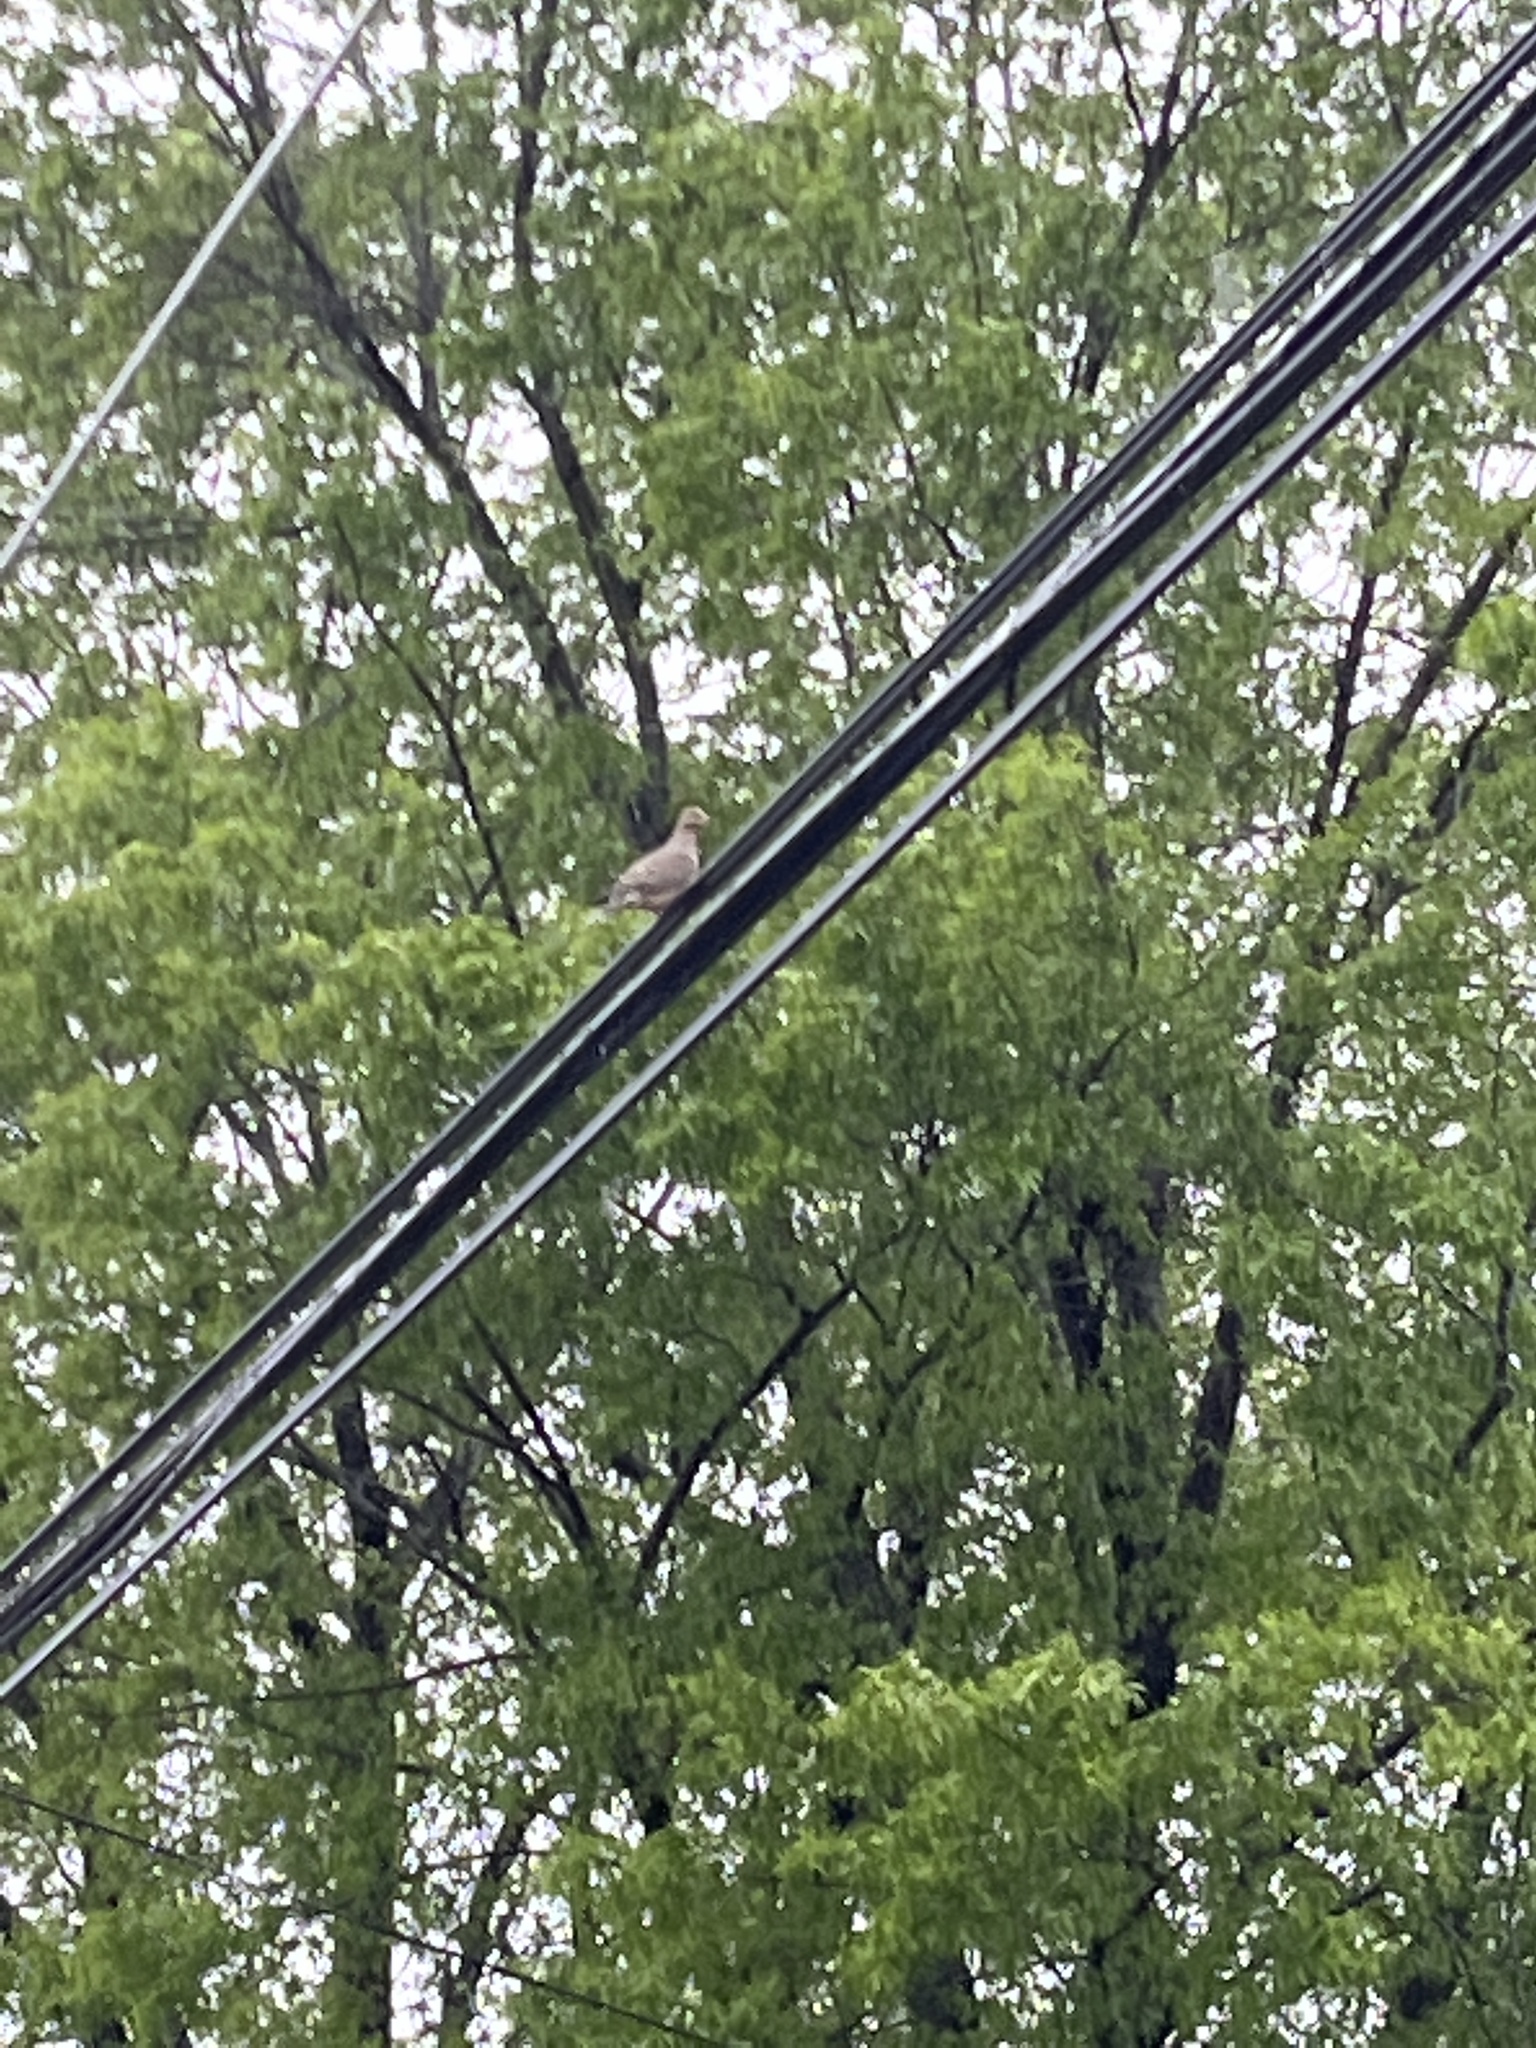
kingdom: Animalia
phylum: Chordata
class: Aves
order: Columbiformes
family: Columbidae
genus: Zenaida
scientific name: Zenaida macroura
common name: Mourning dove
